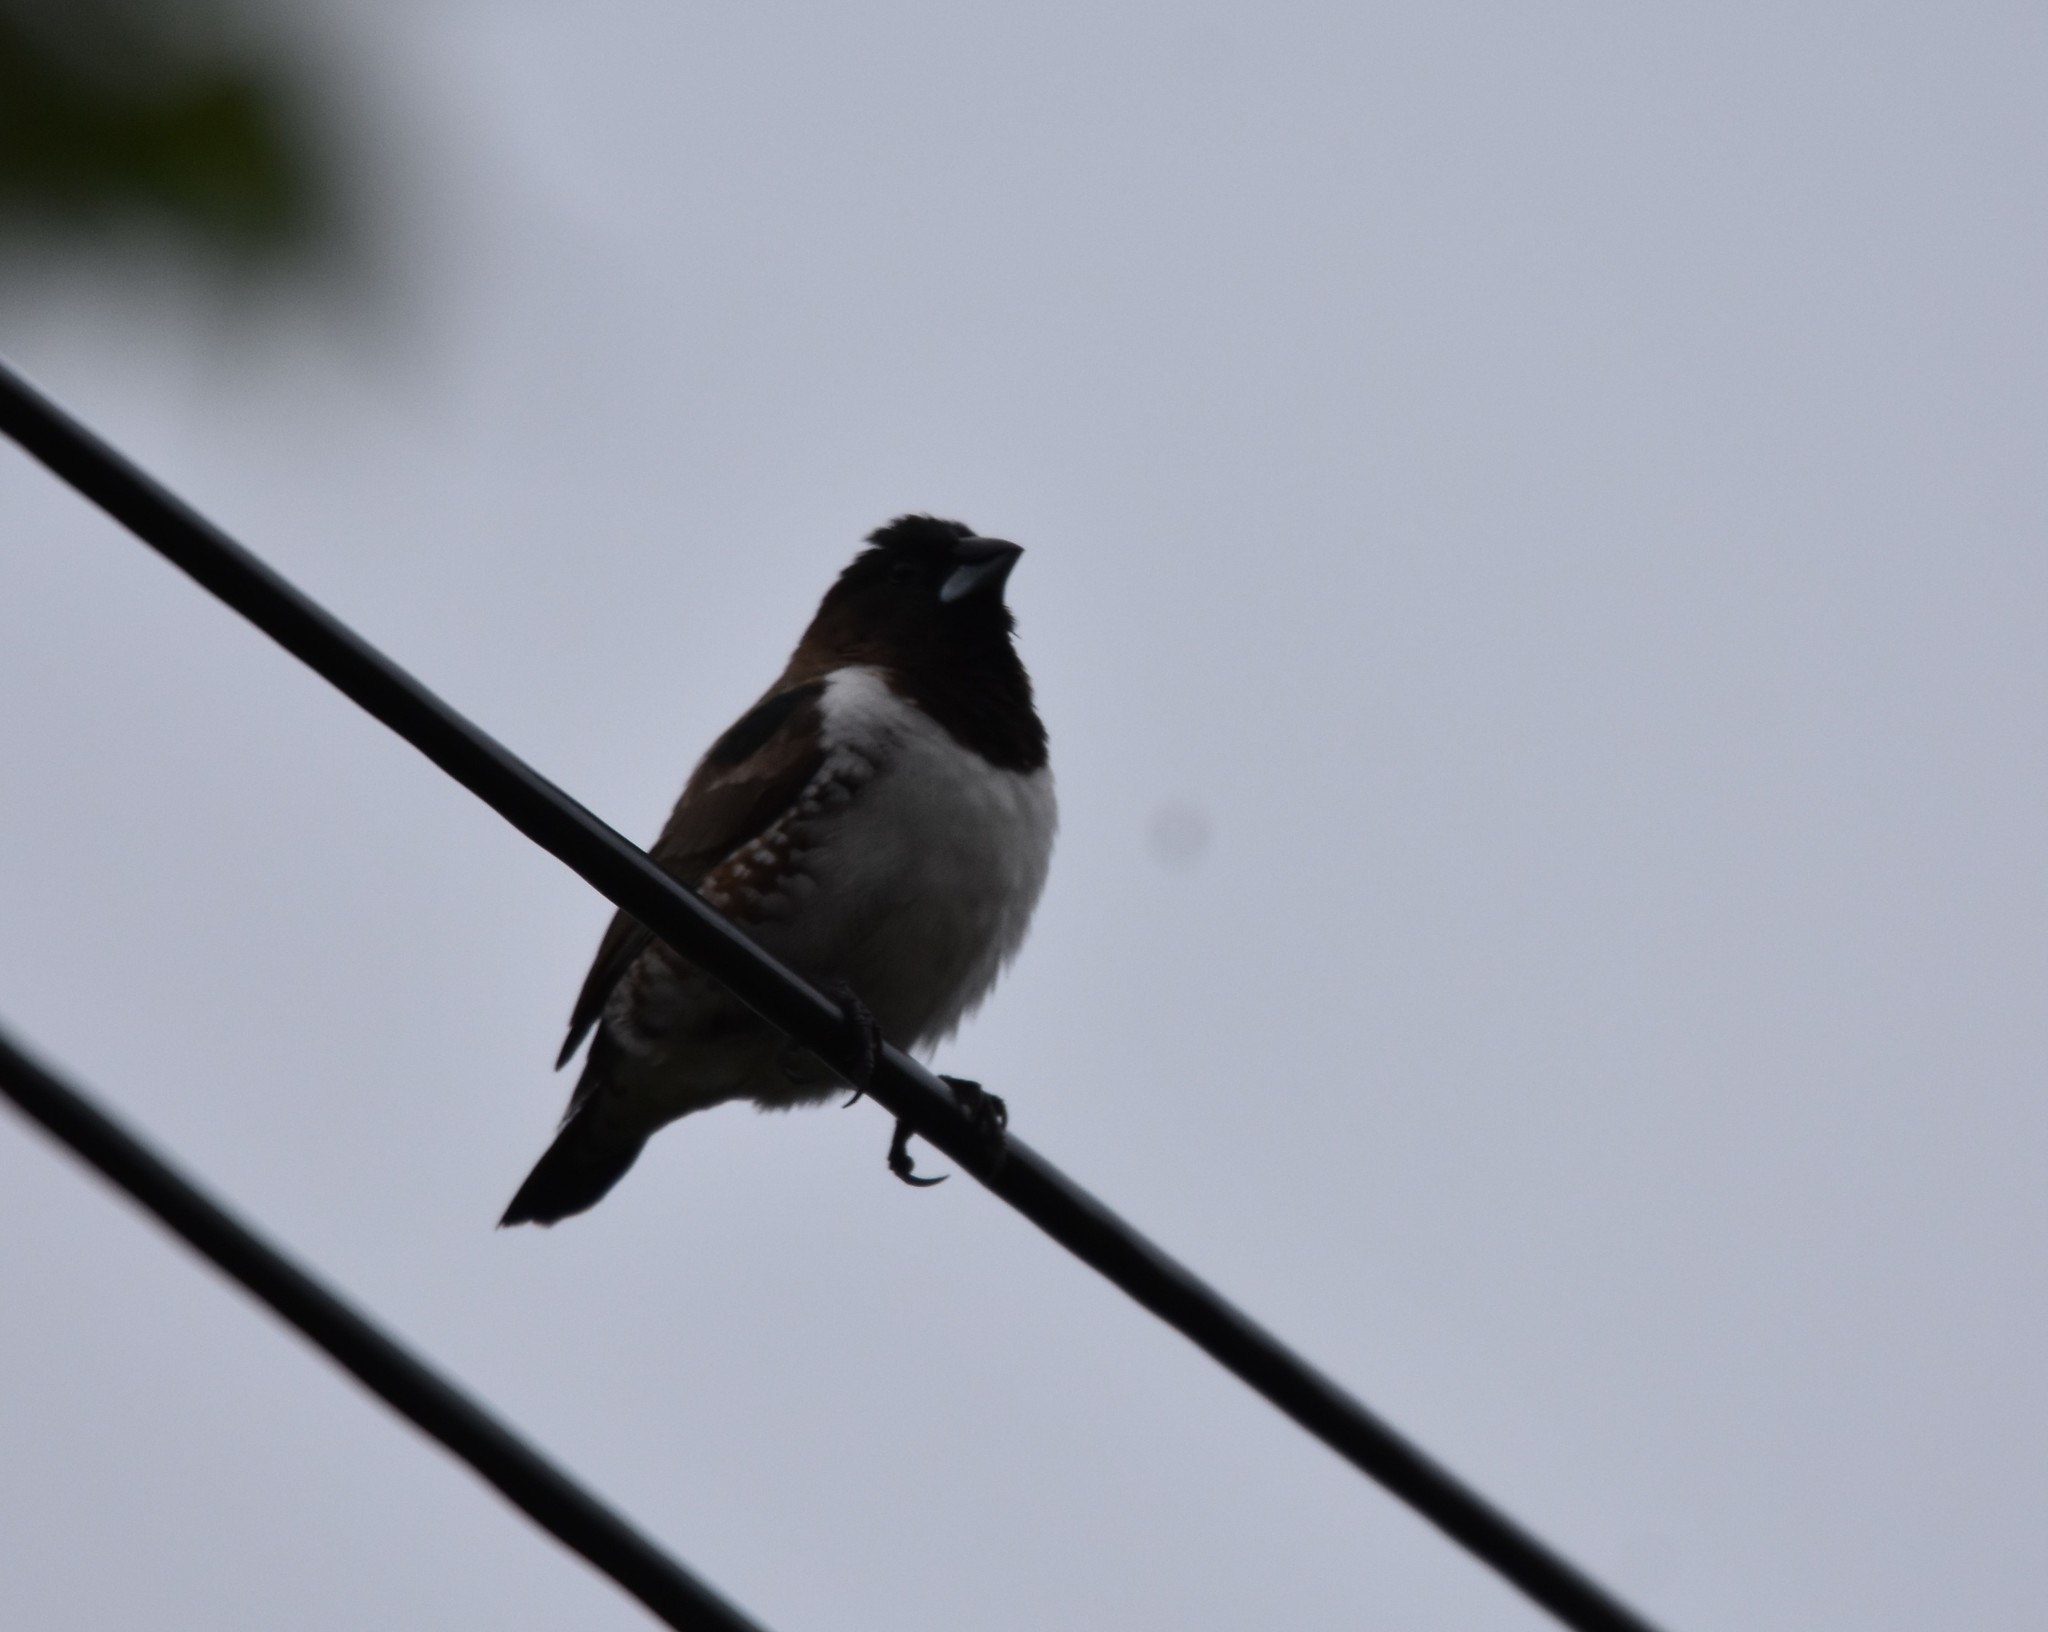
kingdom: Animalia
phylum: Chordata
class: Aves
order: Passeriformes
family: Estrildidae
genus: Lonchura
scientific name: Lonchura cucullata
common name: Bronze mannikin
